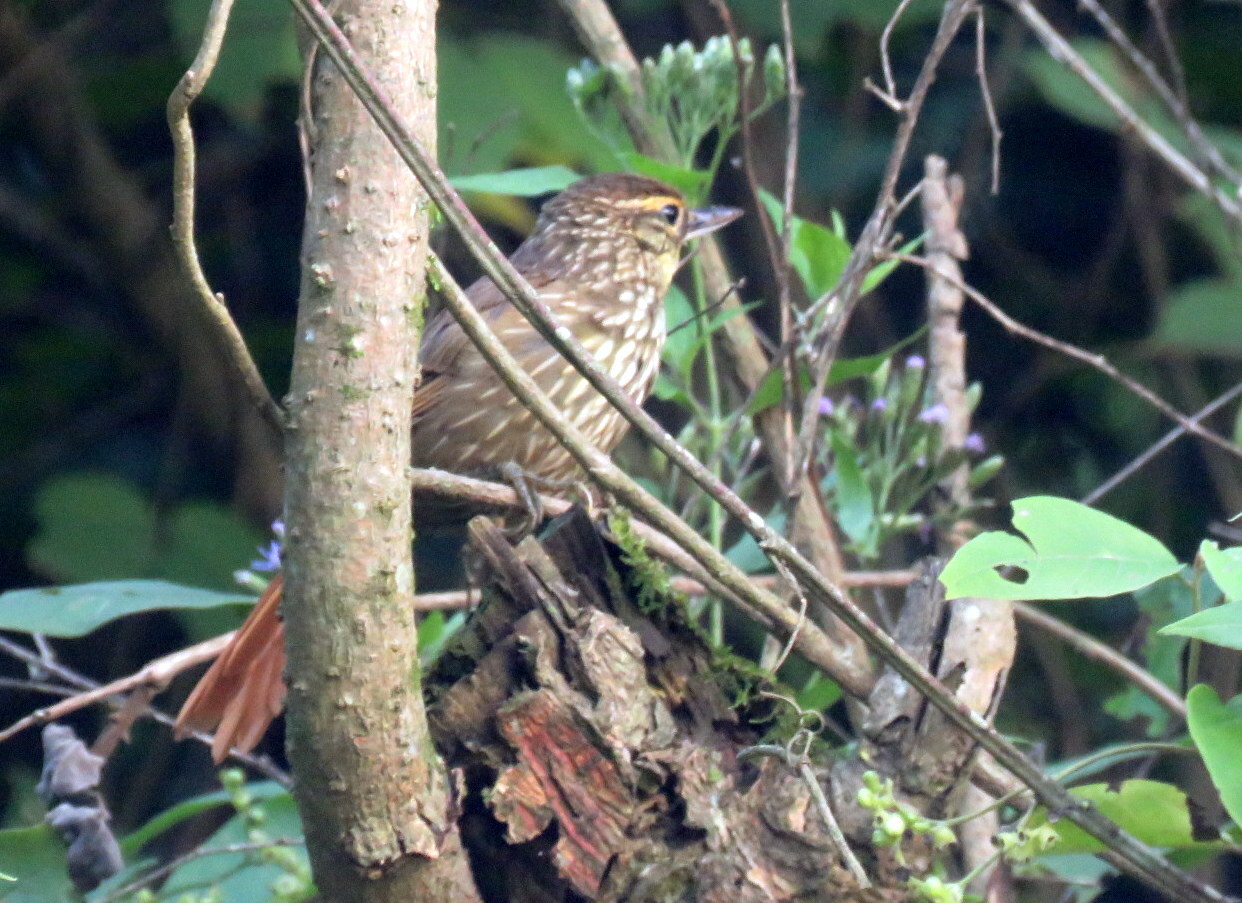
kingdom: Animalia
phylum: Chordata
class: Aves
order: Passeriformes
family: Furnariidae
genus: Syndactyla
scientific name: Syndactyla rufosuperciliata
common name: Buff-browed foliage-gleaner
